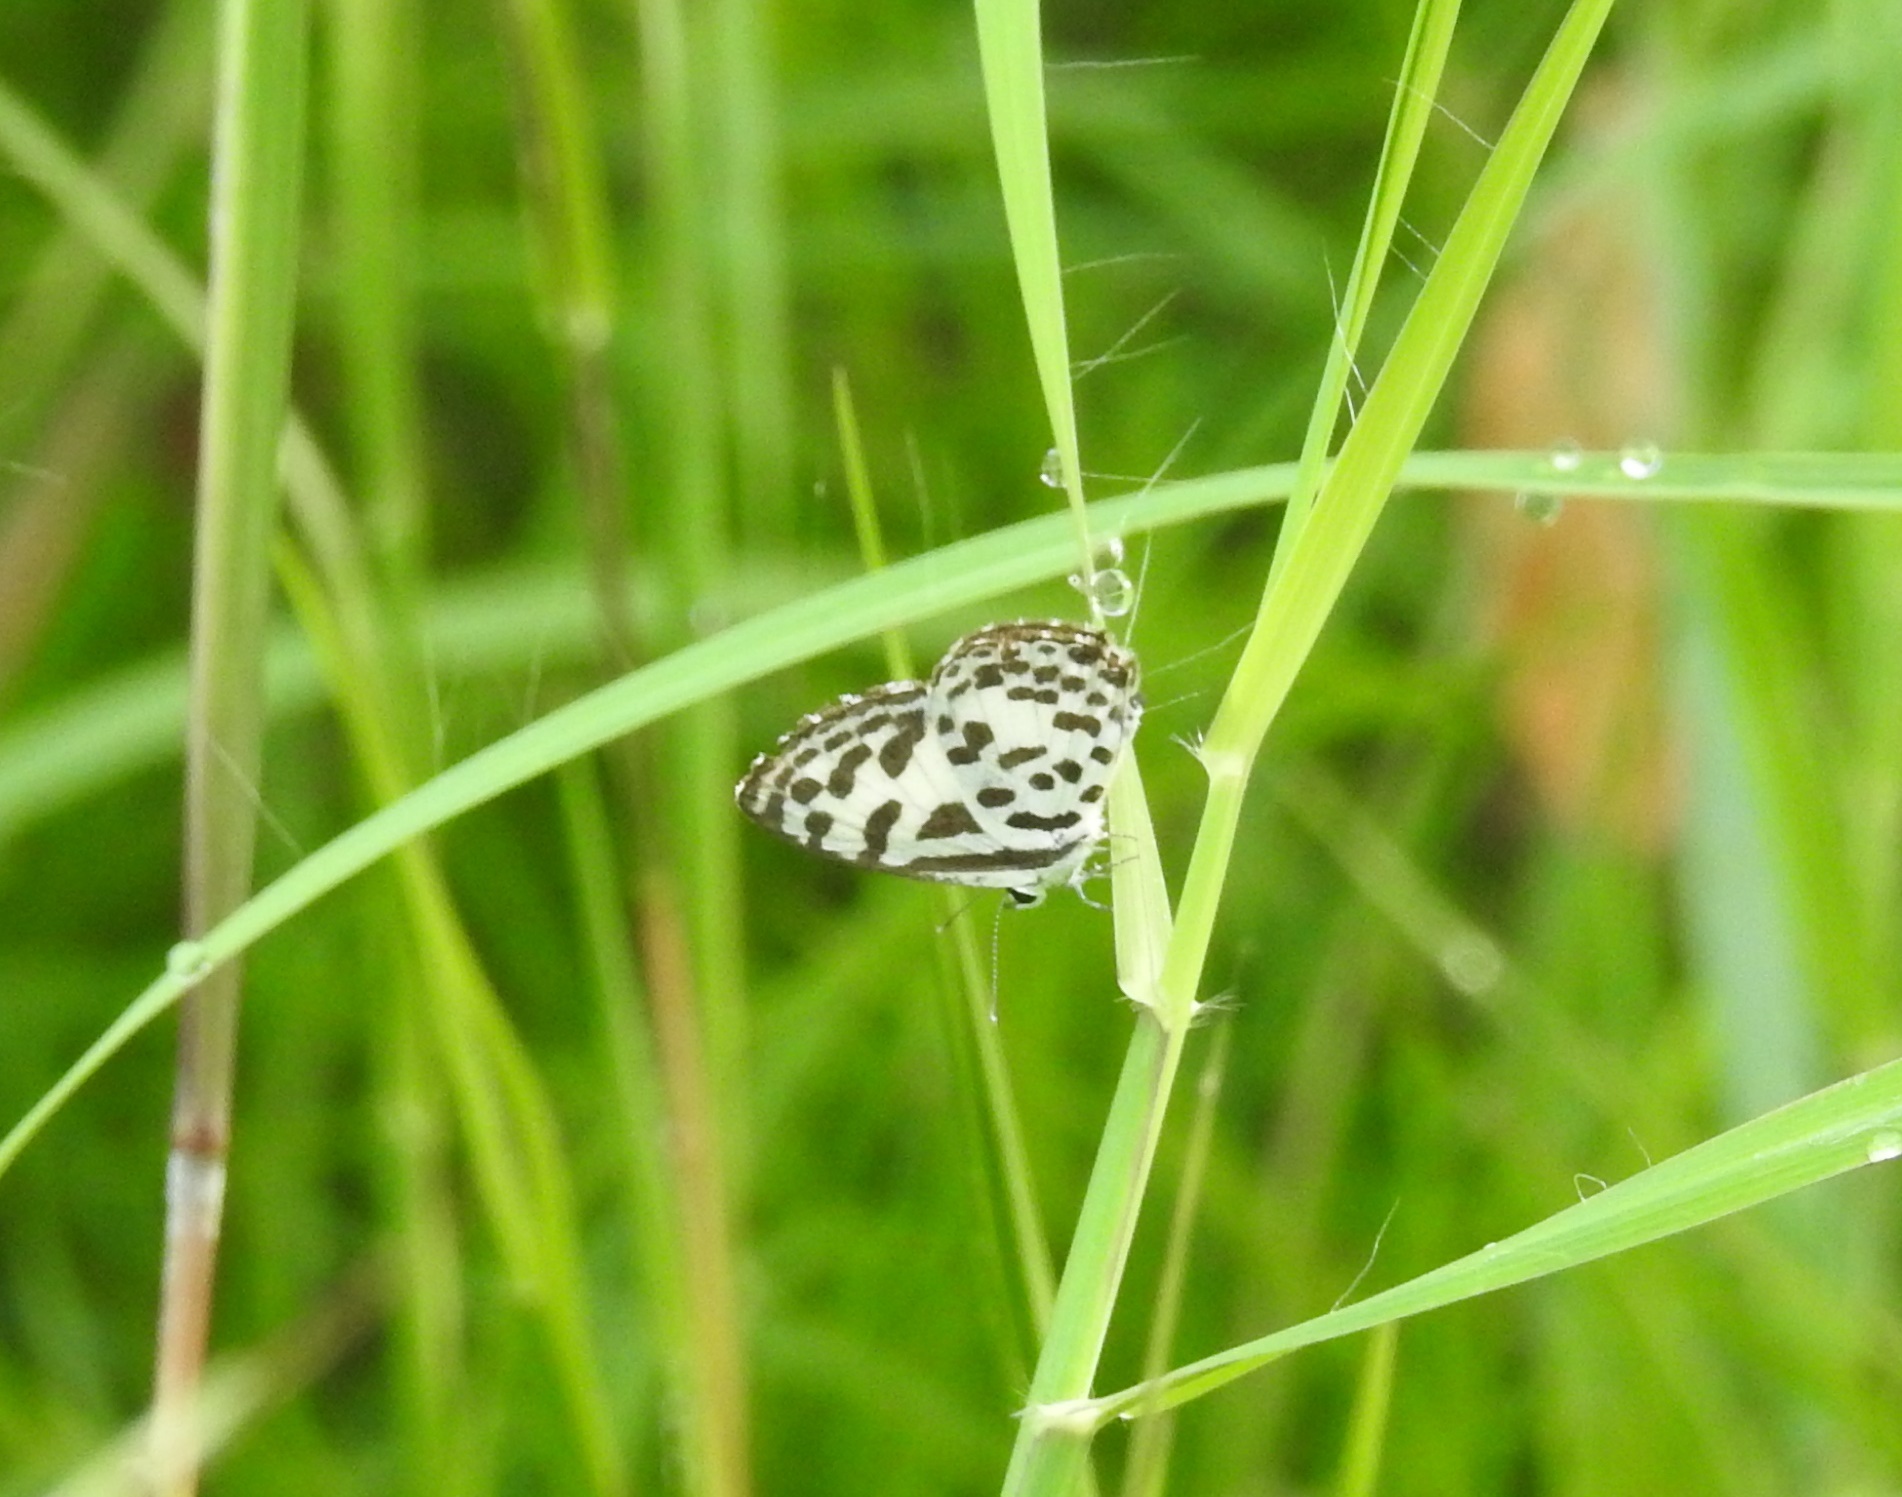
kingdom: Animalia
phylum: Arthropoda
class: Insecta
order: Lepidoptera
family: Lycaenidae
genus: Castalius
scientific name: Castalius rosimon
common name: Common pierrot
